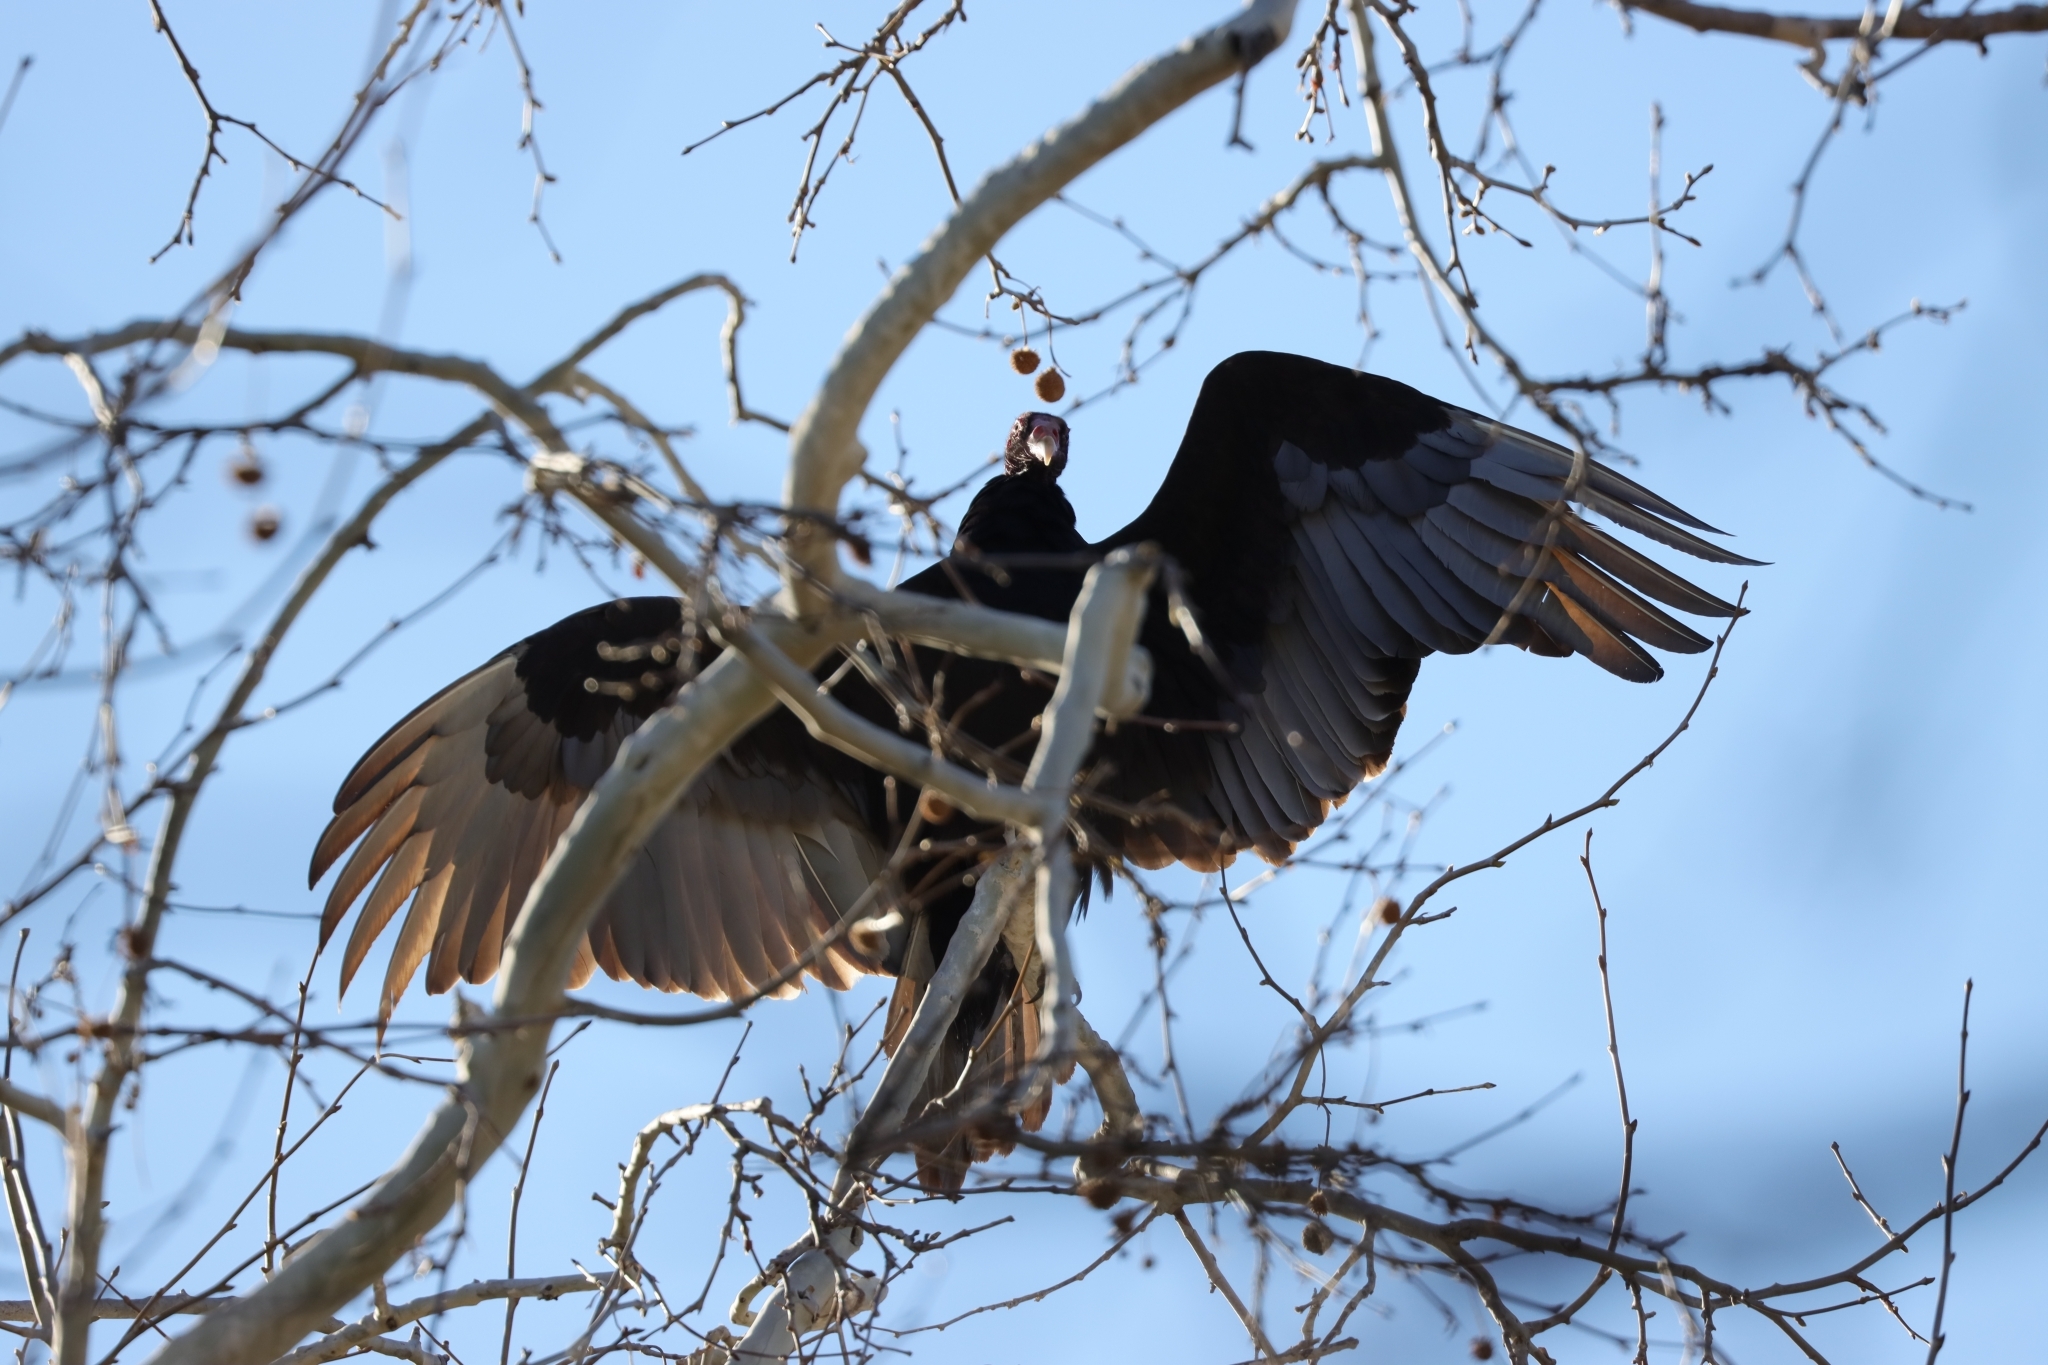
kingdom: Animalia
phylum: Chordata
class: Aves
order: Accipitriformes
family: Cathartidae
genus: Cathartes
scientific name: Cathartes aura
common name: Turkey vulture
